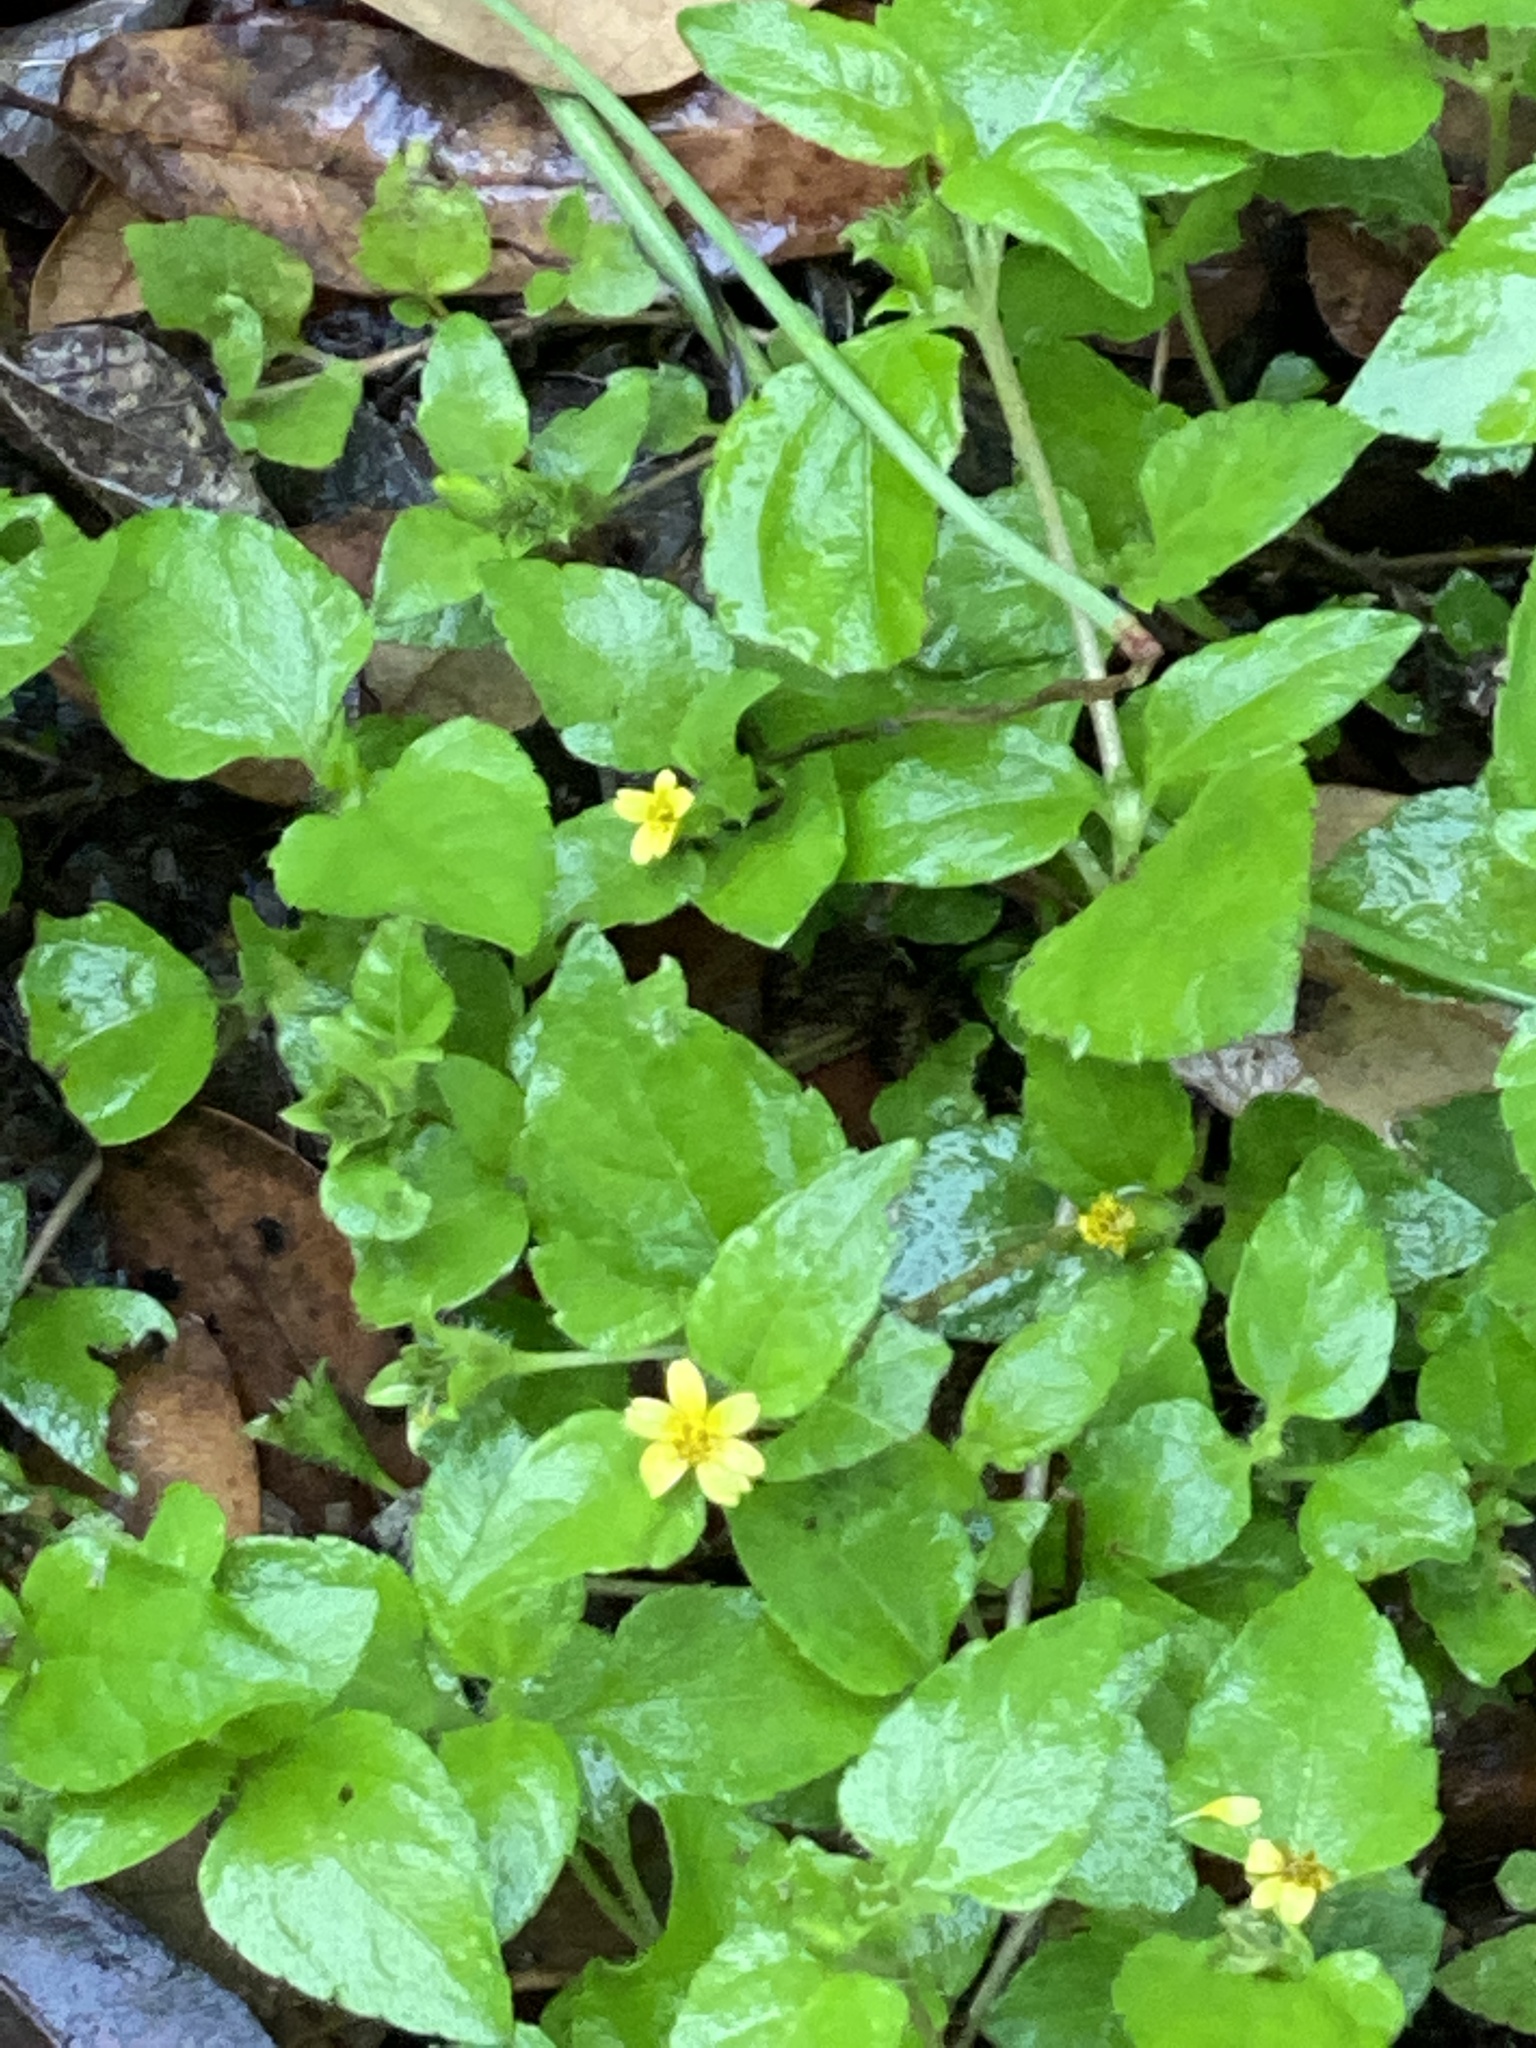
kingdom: Plantae
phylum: Tracheophyta
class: Magnoliopsida
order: Asterales
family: Asteraceae
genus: Calyptocarpus
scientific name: Calyptocarpus vialis
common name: Straggler daisy
